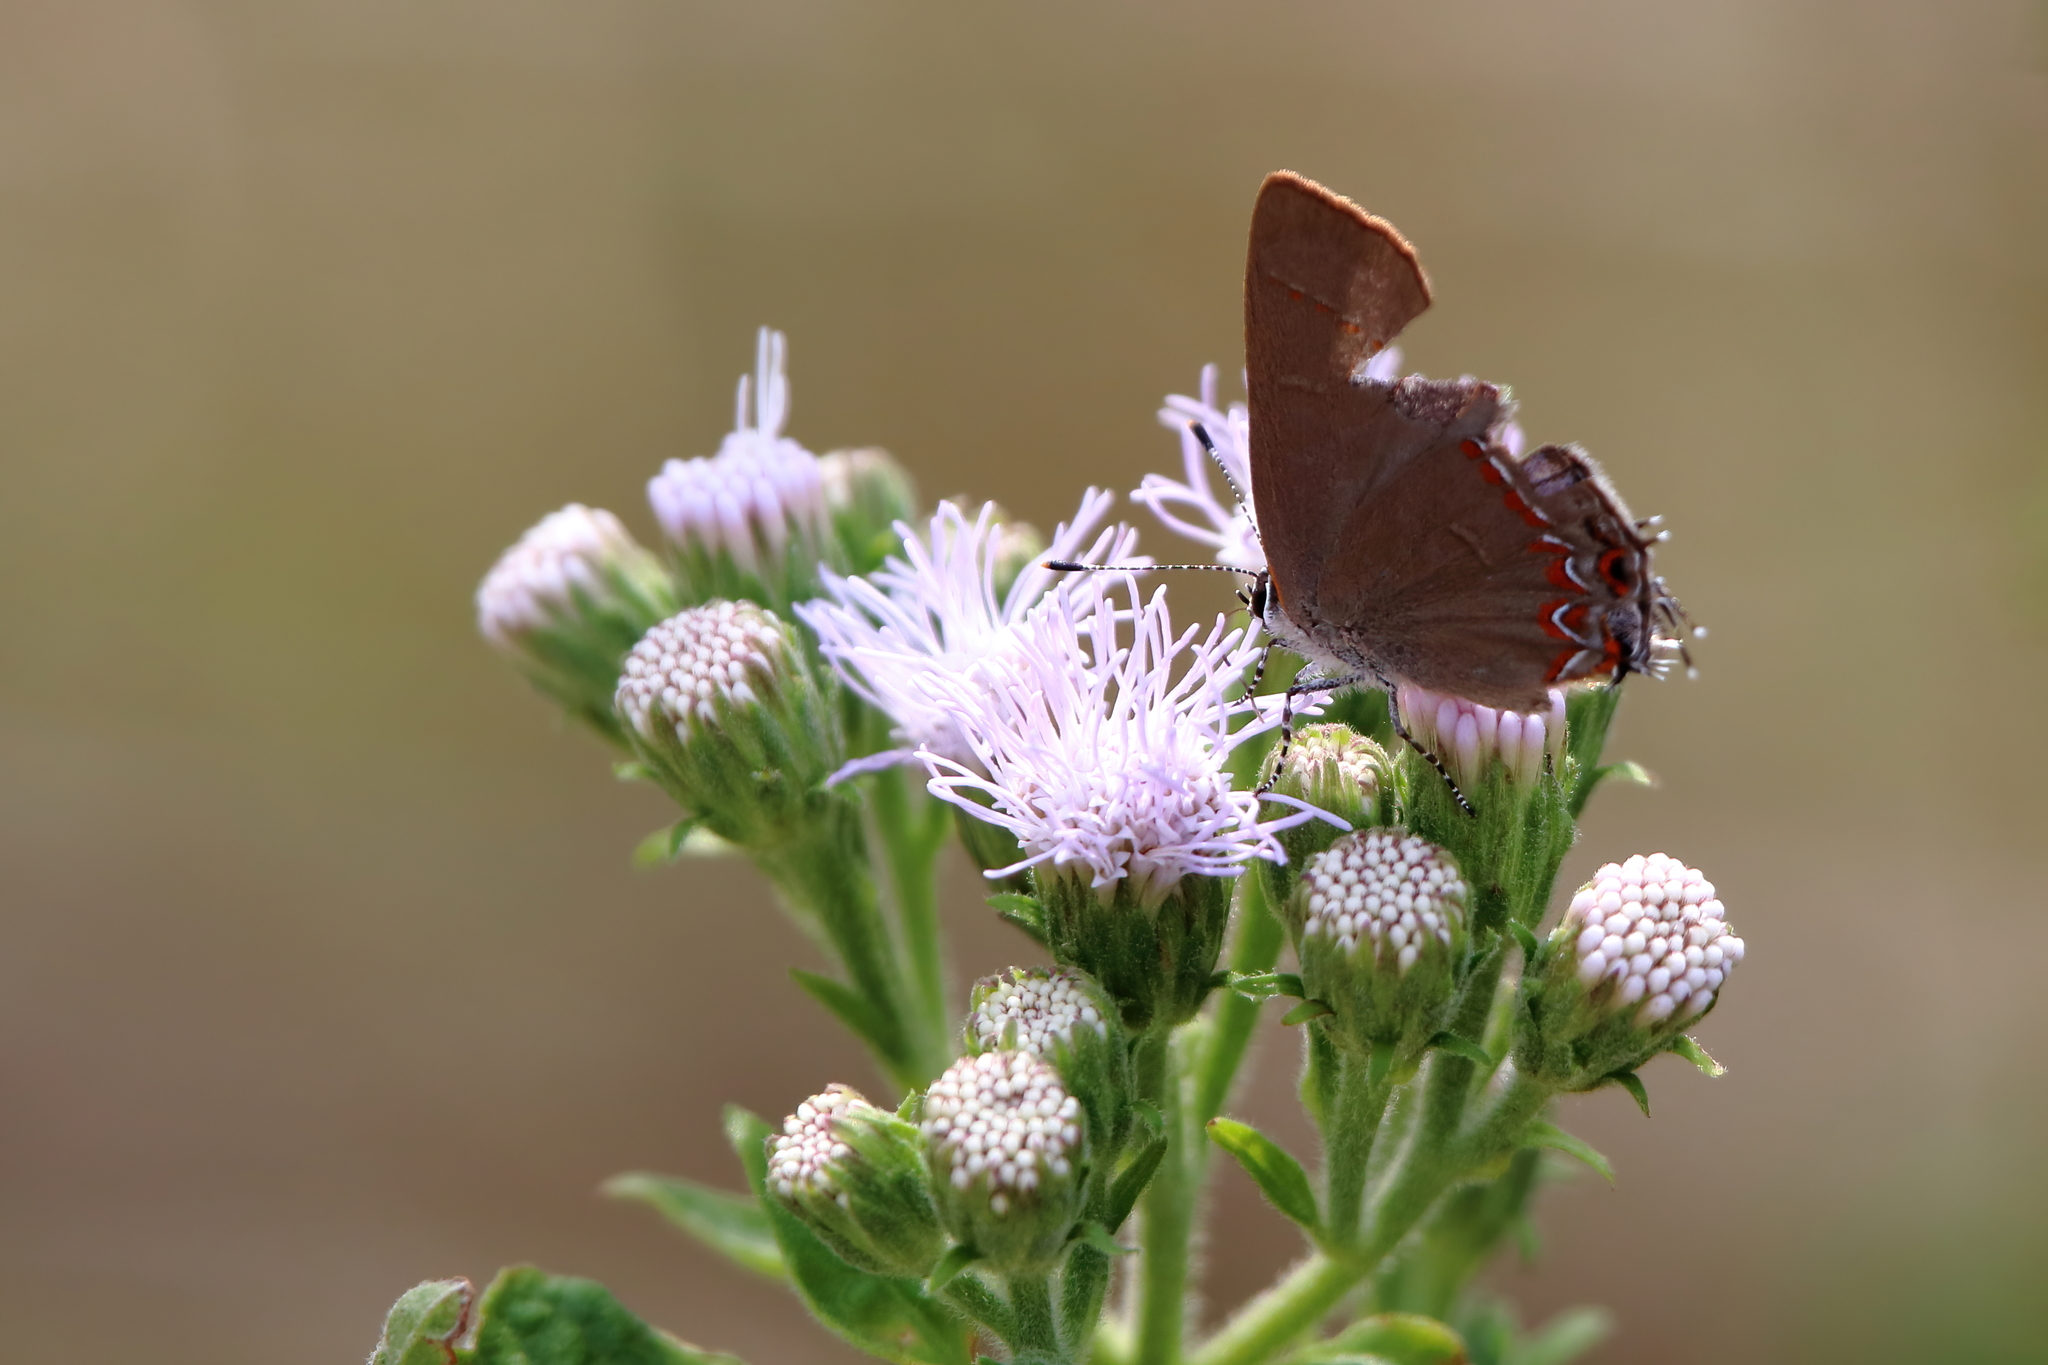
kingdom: Animalia
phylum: Arthropoda
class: Insecta
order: Lepidoptera
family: Lycaenidae
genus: Calycopis
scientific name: Calycopis isobeon
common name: Dusky-blue groundstreak
